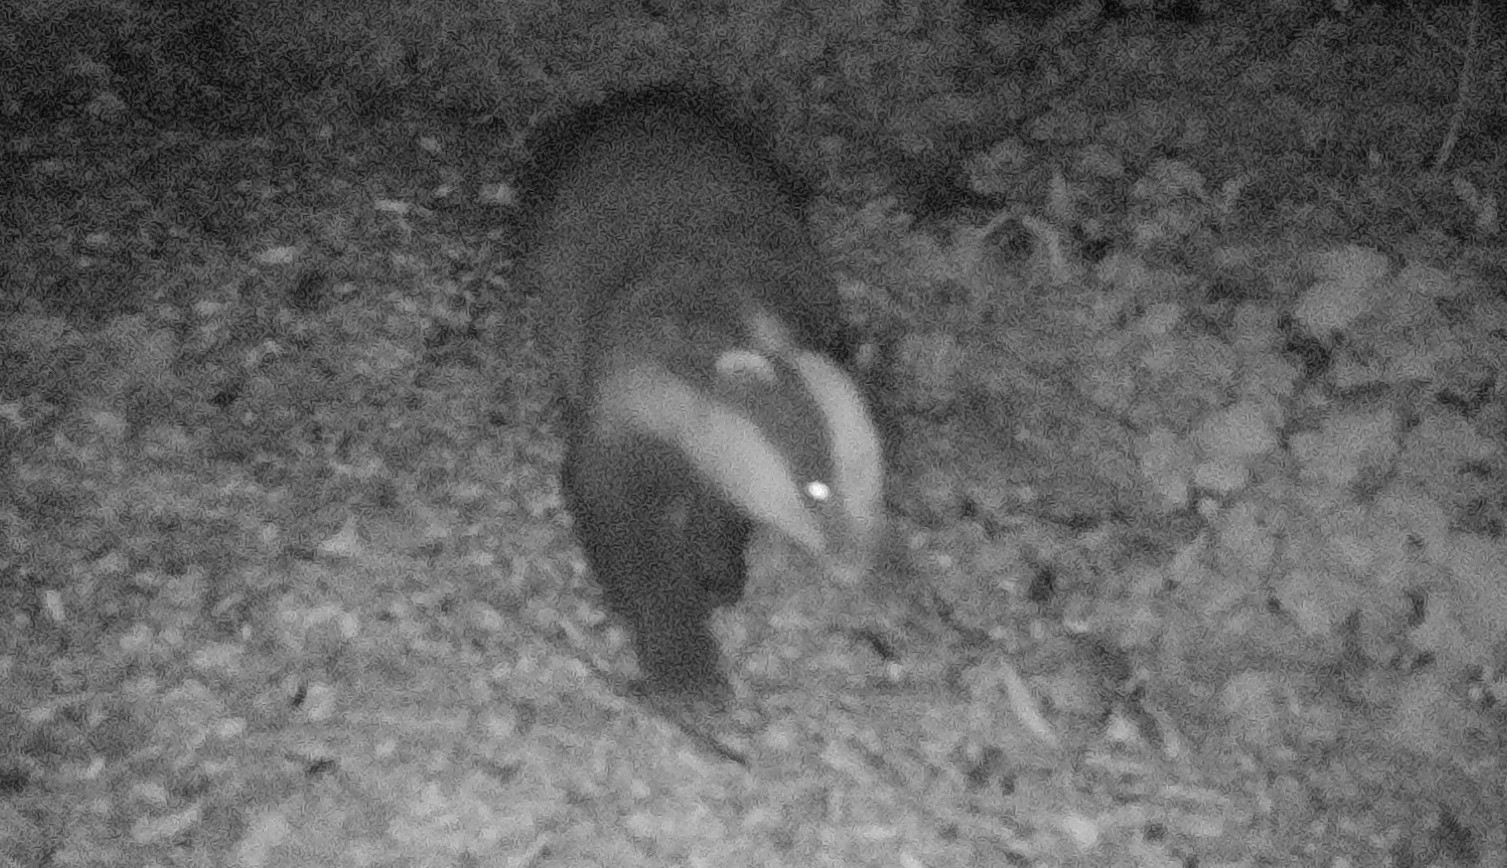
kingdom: Animalia
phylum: Chordata
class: Mammalia
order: Carnivora
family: Mustelidae
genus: Meles
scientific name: Meles meles
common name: Eurasian badger
